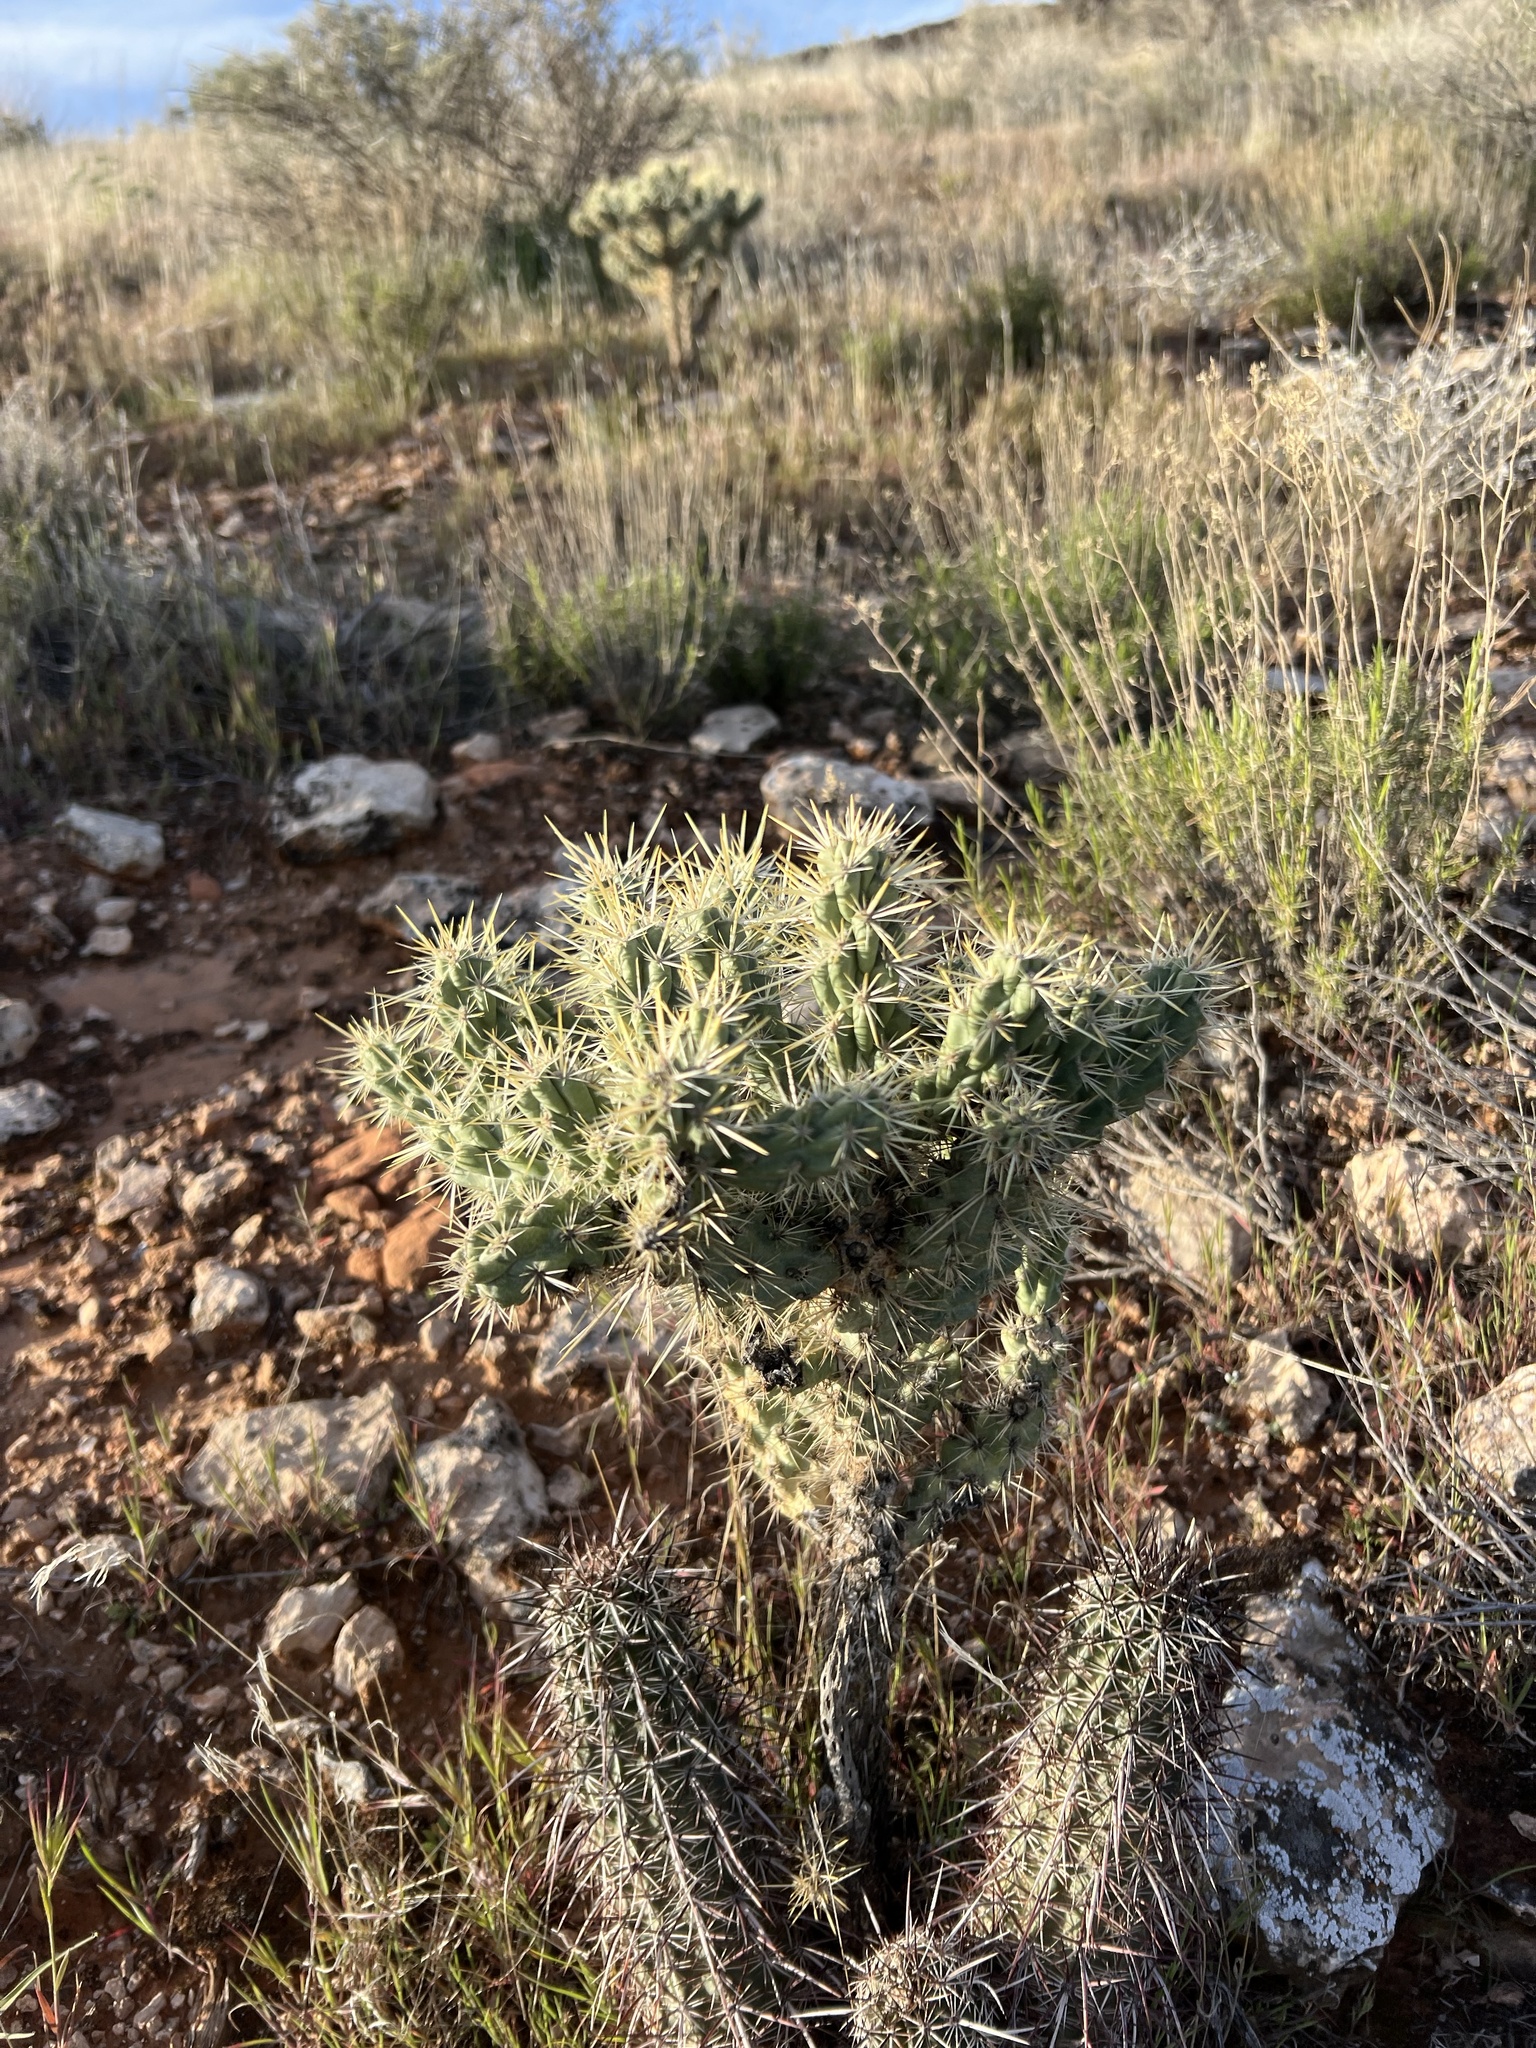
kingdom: Plantae
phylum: Tracheophyta
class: Magnoliopsida
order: Caryophyllales
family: Cactaceae
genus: Cylindropuntia
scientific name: Cylindropuntia echinocarpa
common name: Ground cholla
